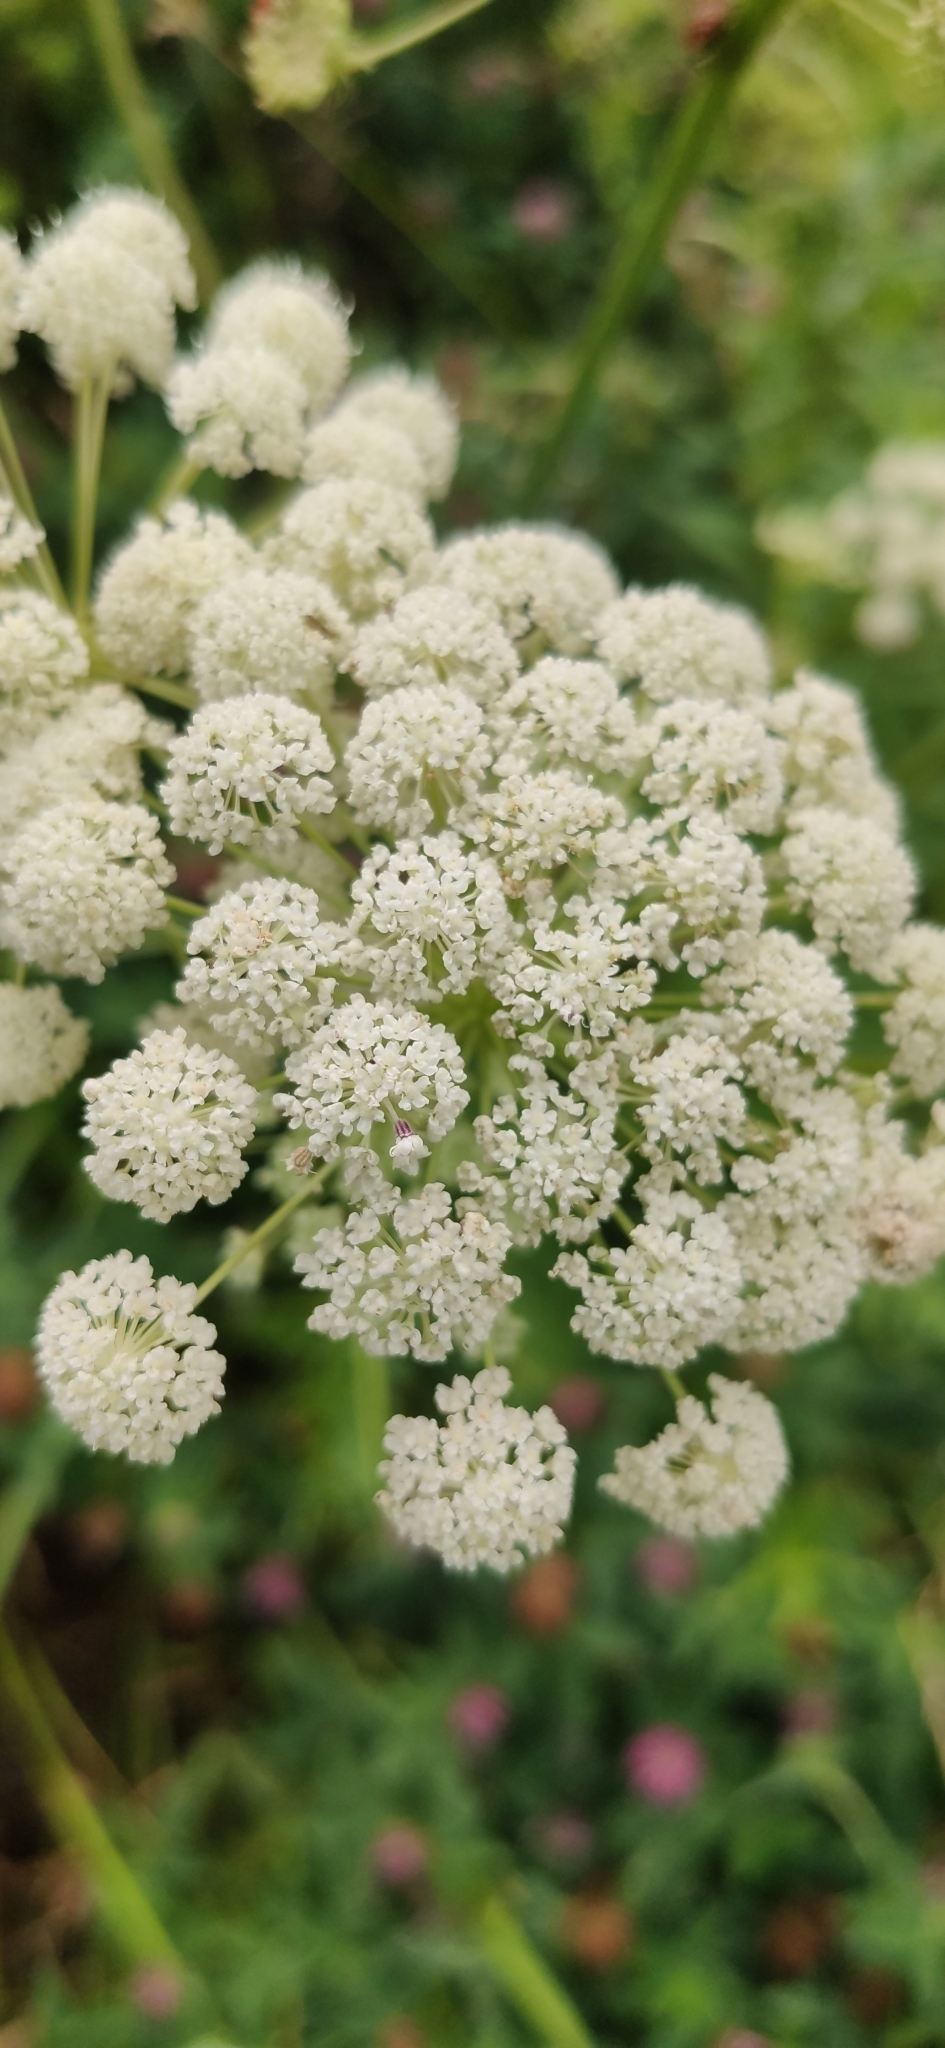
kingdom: Plantae
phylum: Tracheophyta
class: Magnoliopsida
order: Apiales
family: Apiaceae
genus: Seseli
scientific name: Seseli libanotis
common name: Mooncarrot
